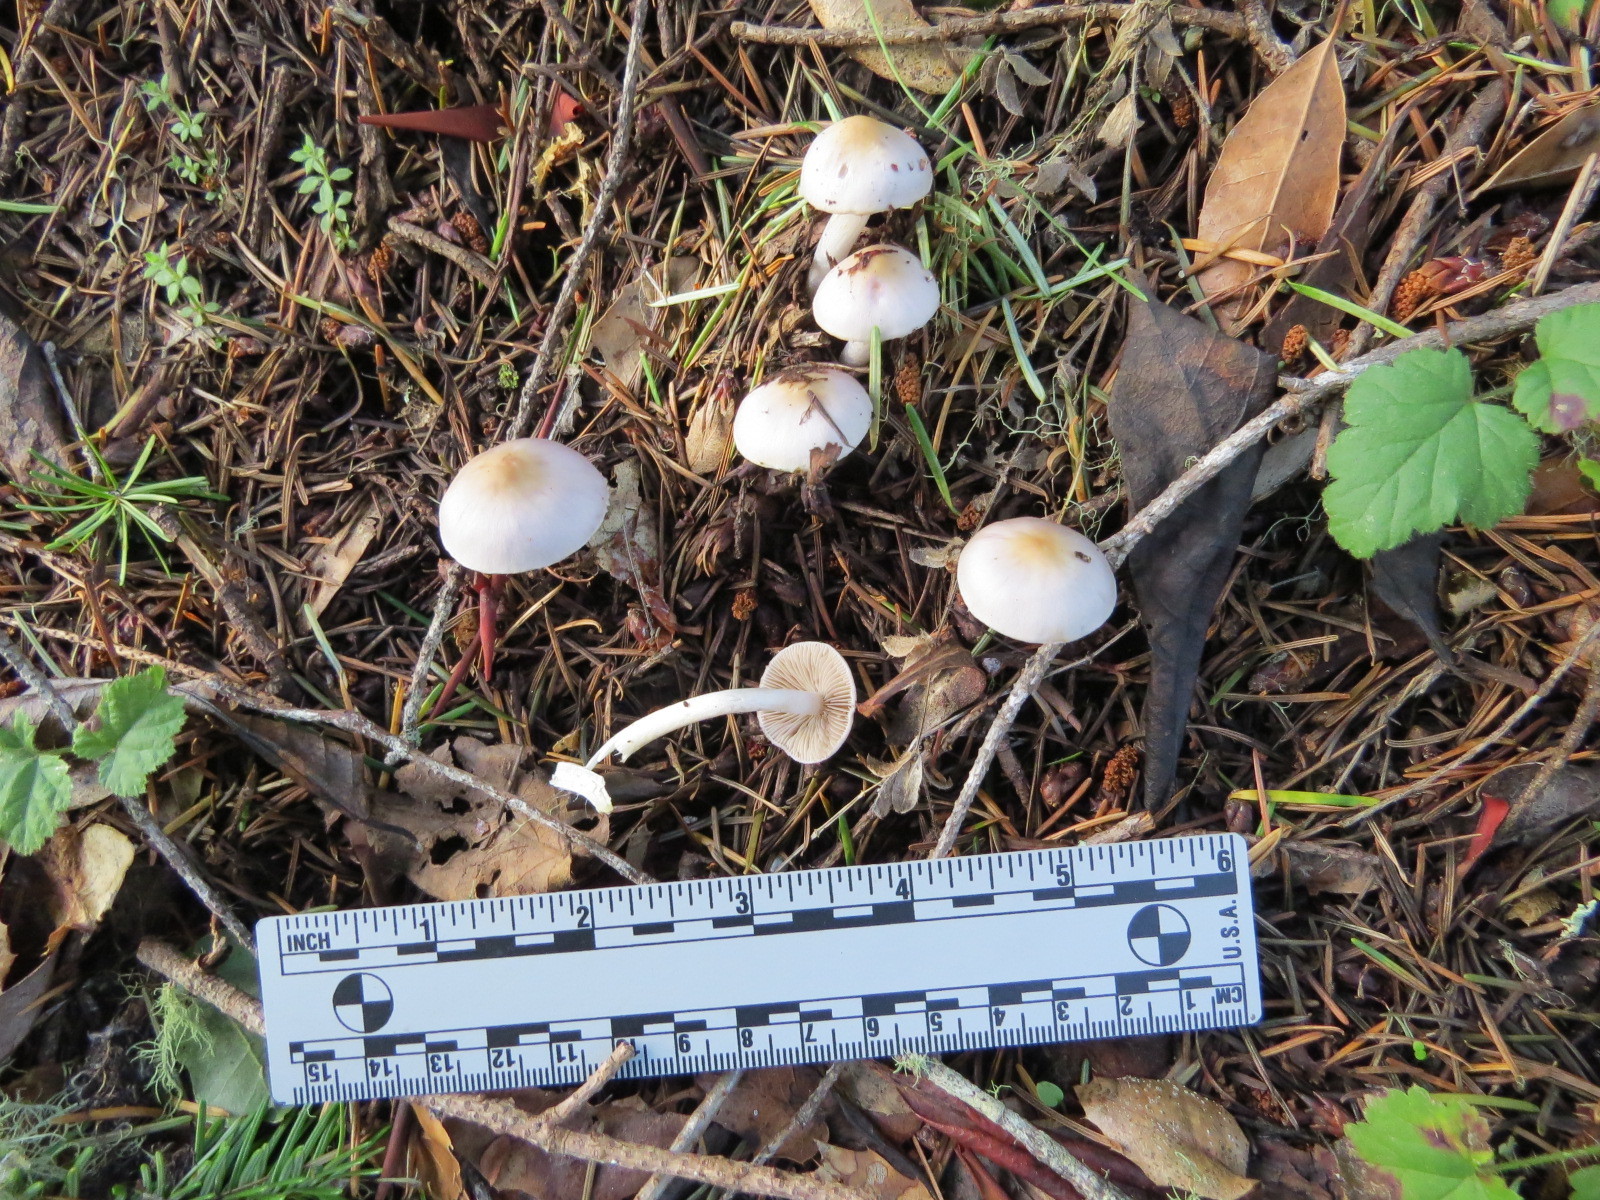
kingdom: Fungi
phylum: Basidiomycota
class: Agaricomycetes
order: Agaricales
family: Inocybaceae
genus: Inocybe
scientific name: Inocybe geophylla
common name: White fibrecap
